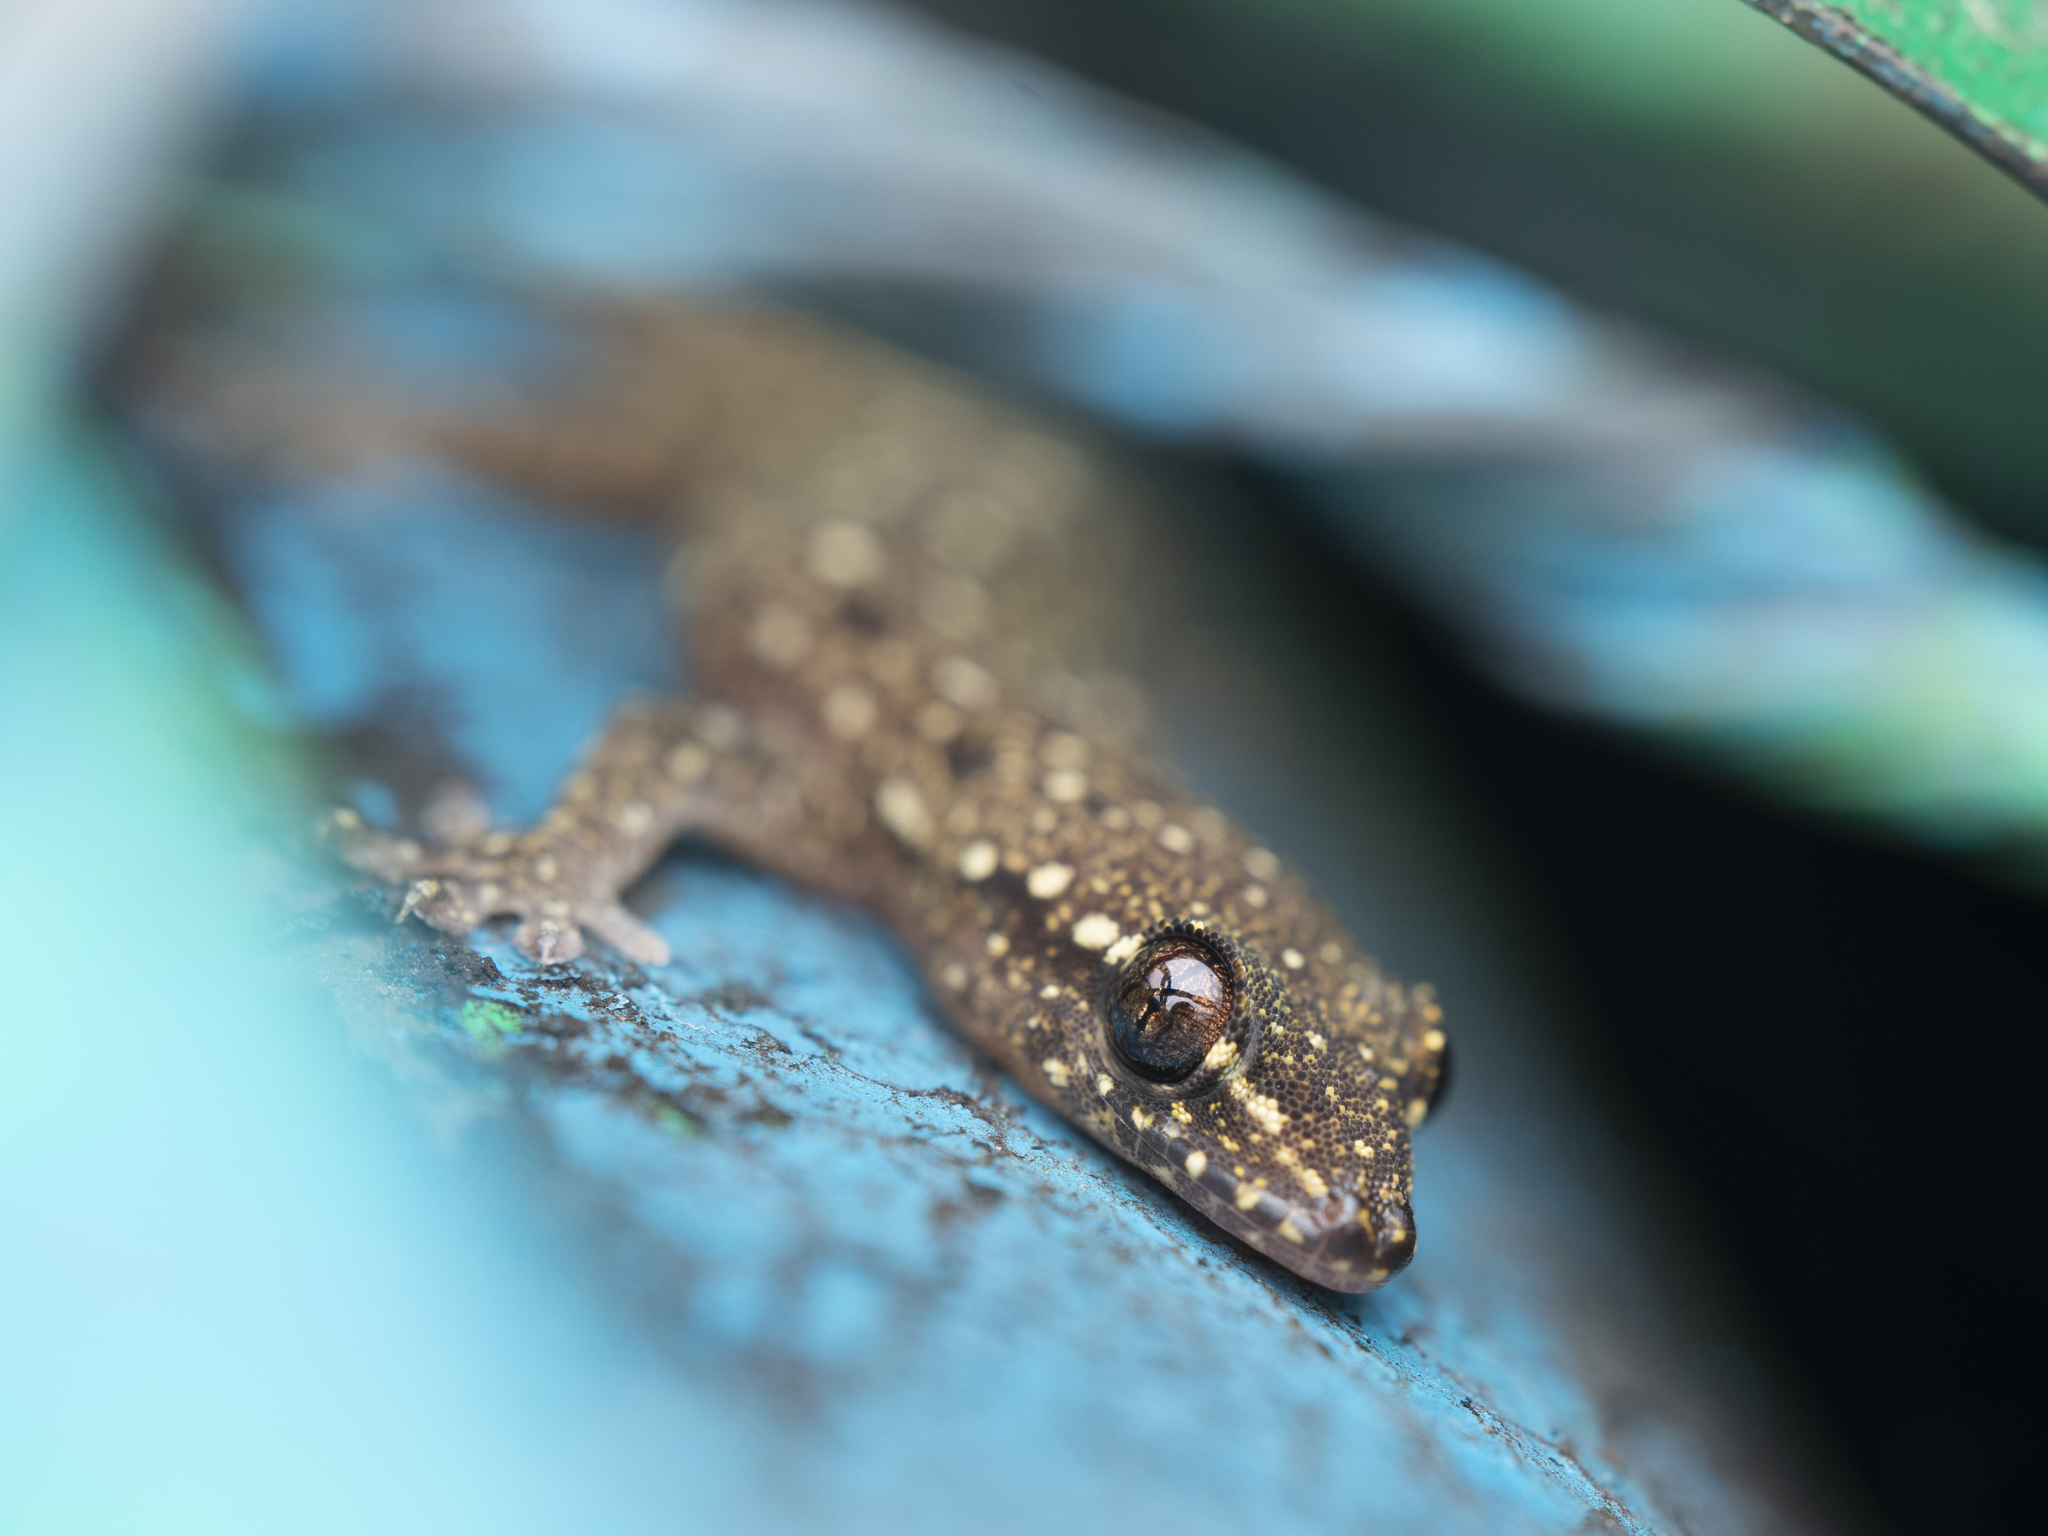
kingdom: Animalia
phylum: Chordata
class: Squamata
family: Gekkonidae
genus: Hemidactylus
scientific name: Hemidactylus bowringii
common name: Oriental leaf-toed gecko
